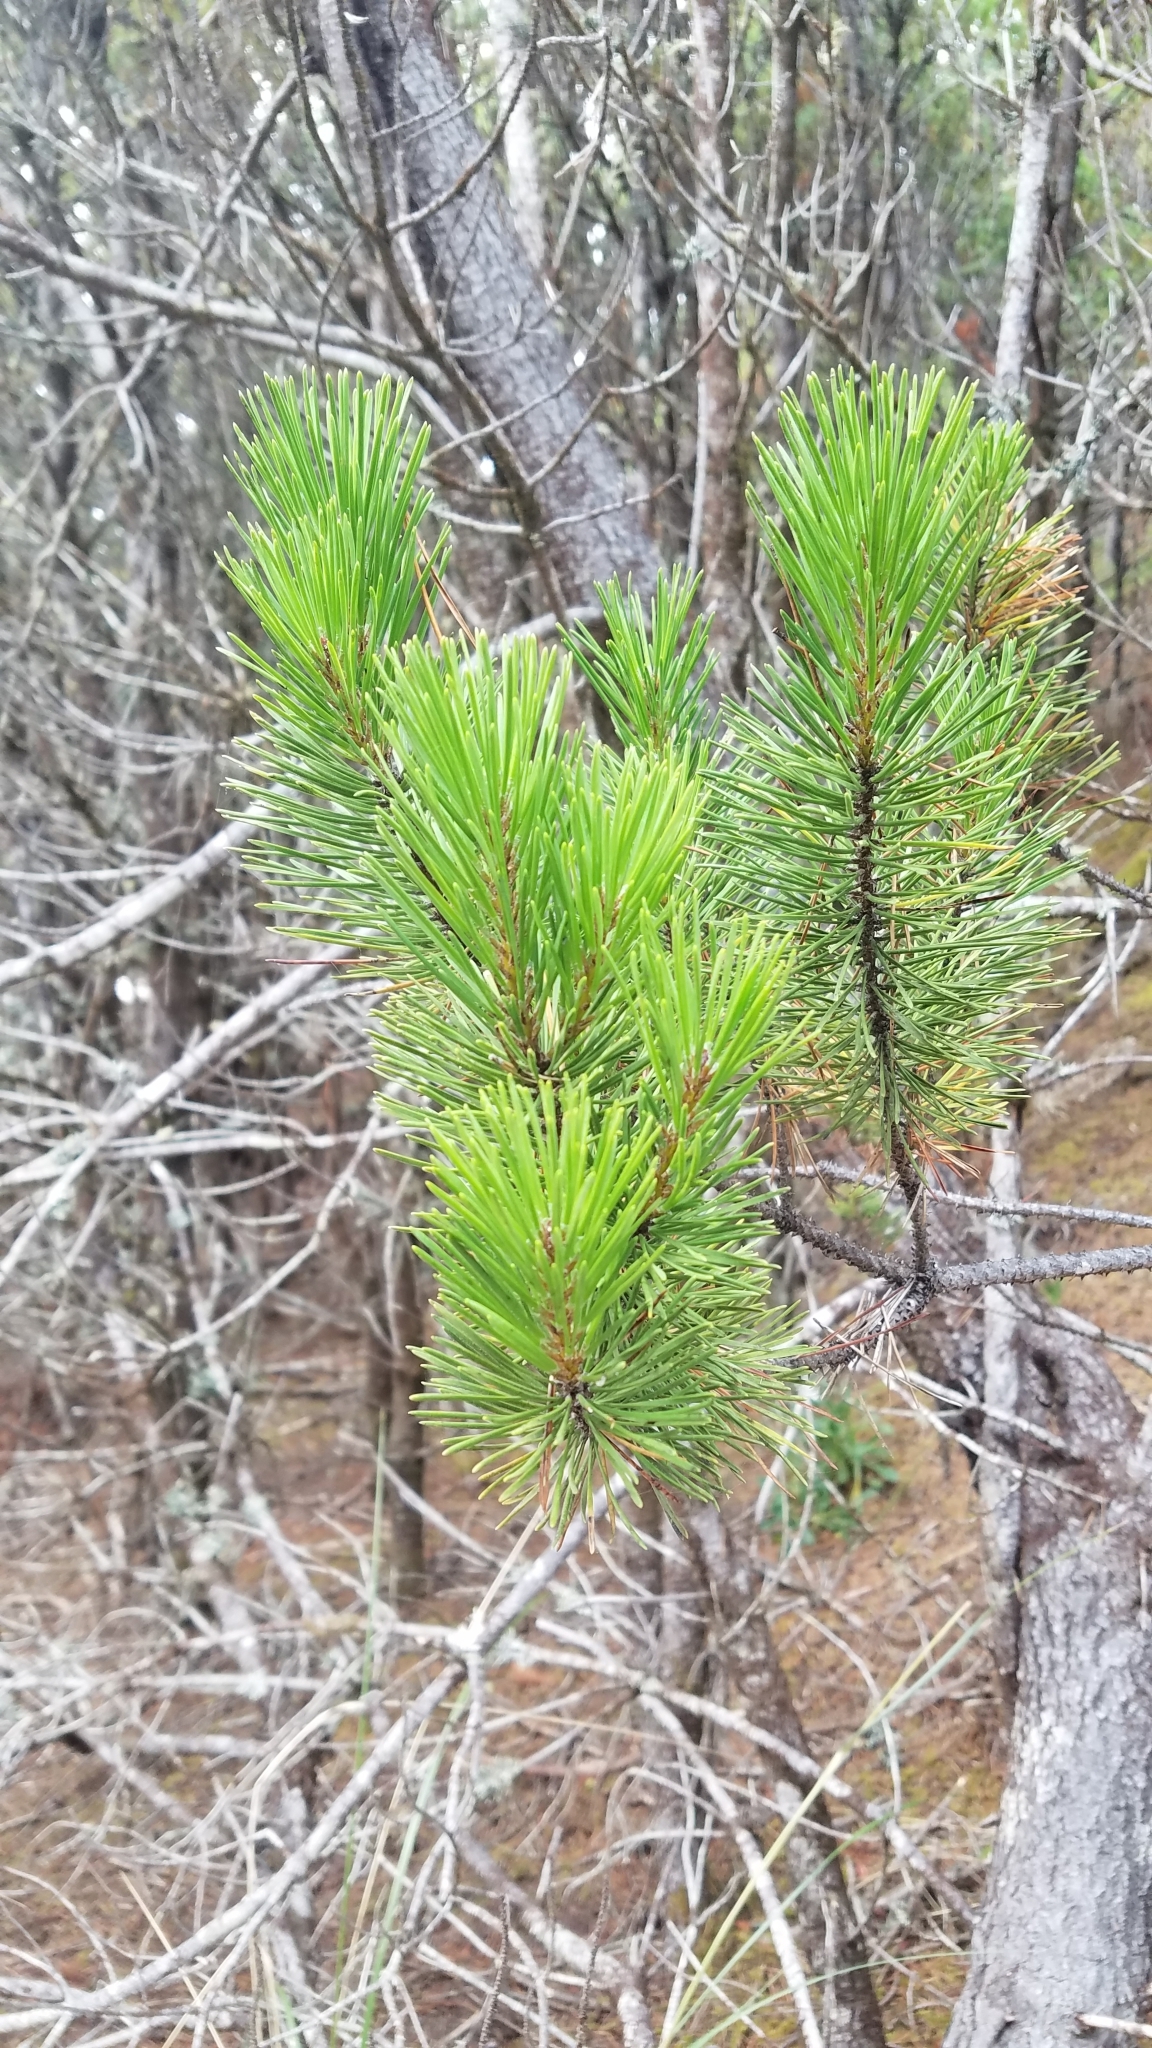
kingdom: Plantae
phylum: Tracheophyta
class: Pinopsida
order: Pinales
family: Pinaceae
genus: Pinus
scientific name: Pinus contorta
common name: Lodgepole pine
